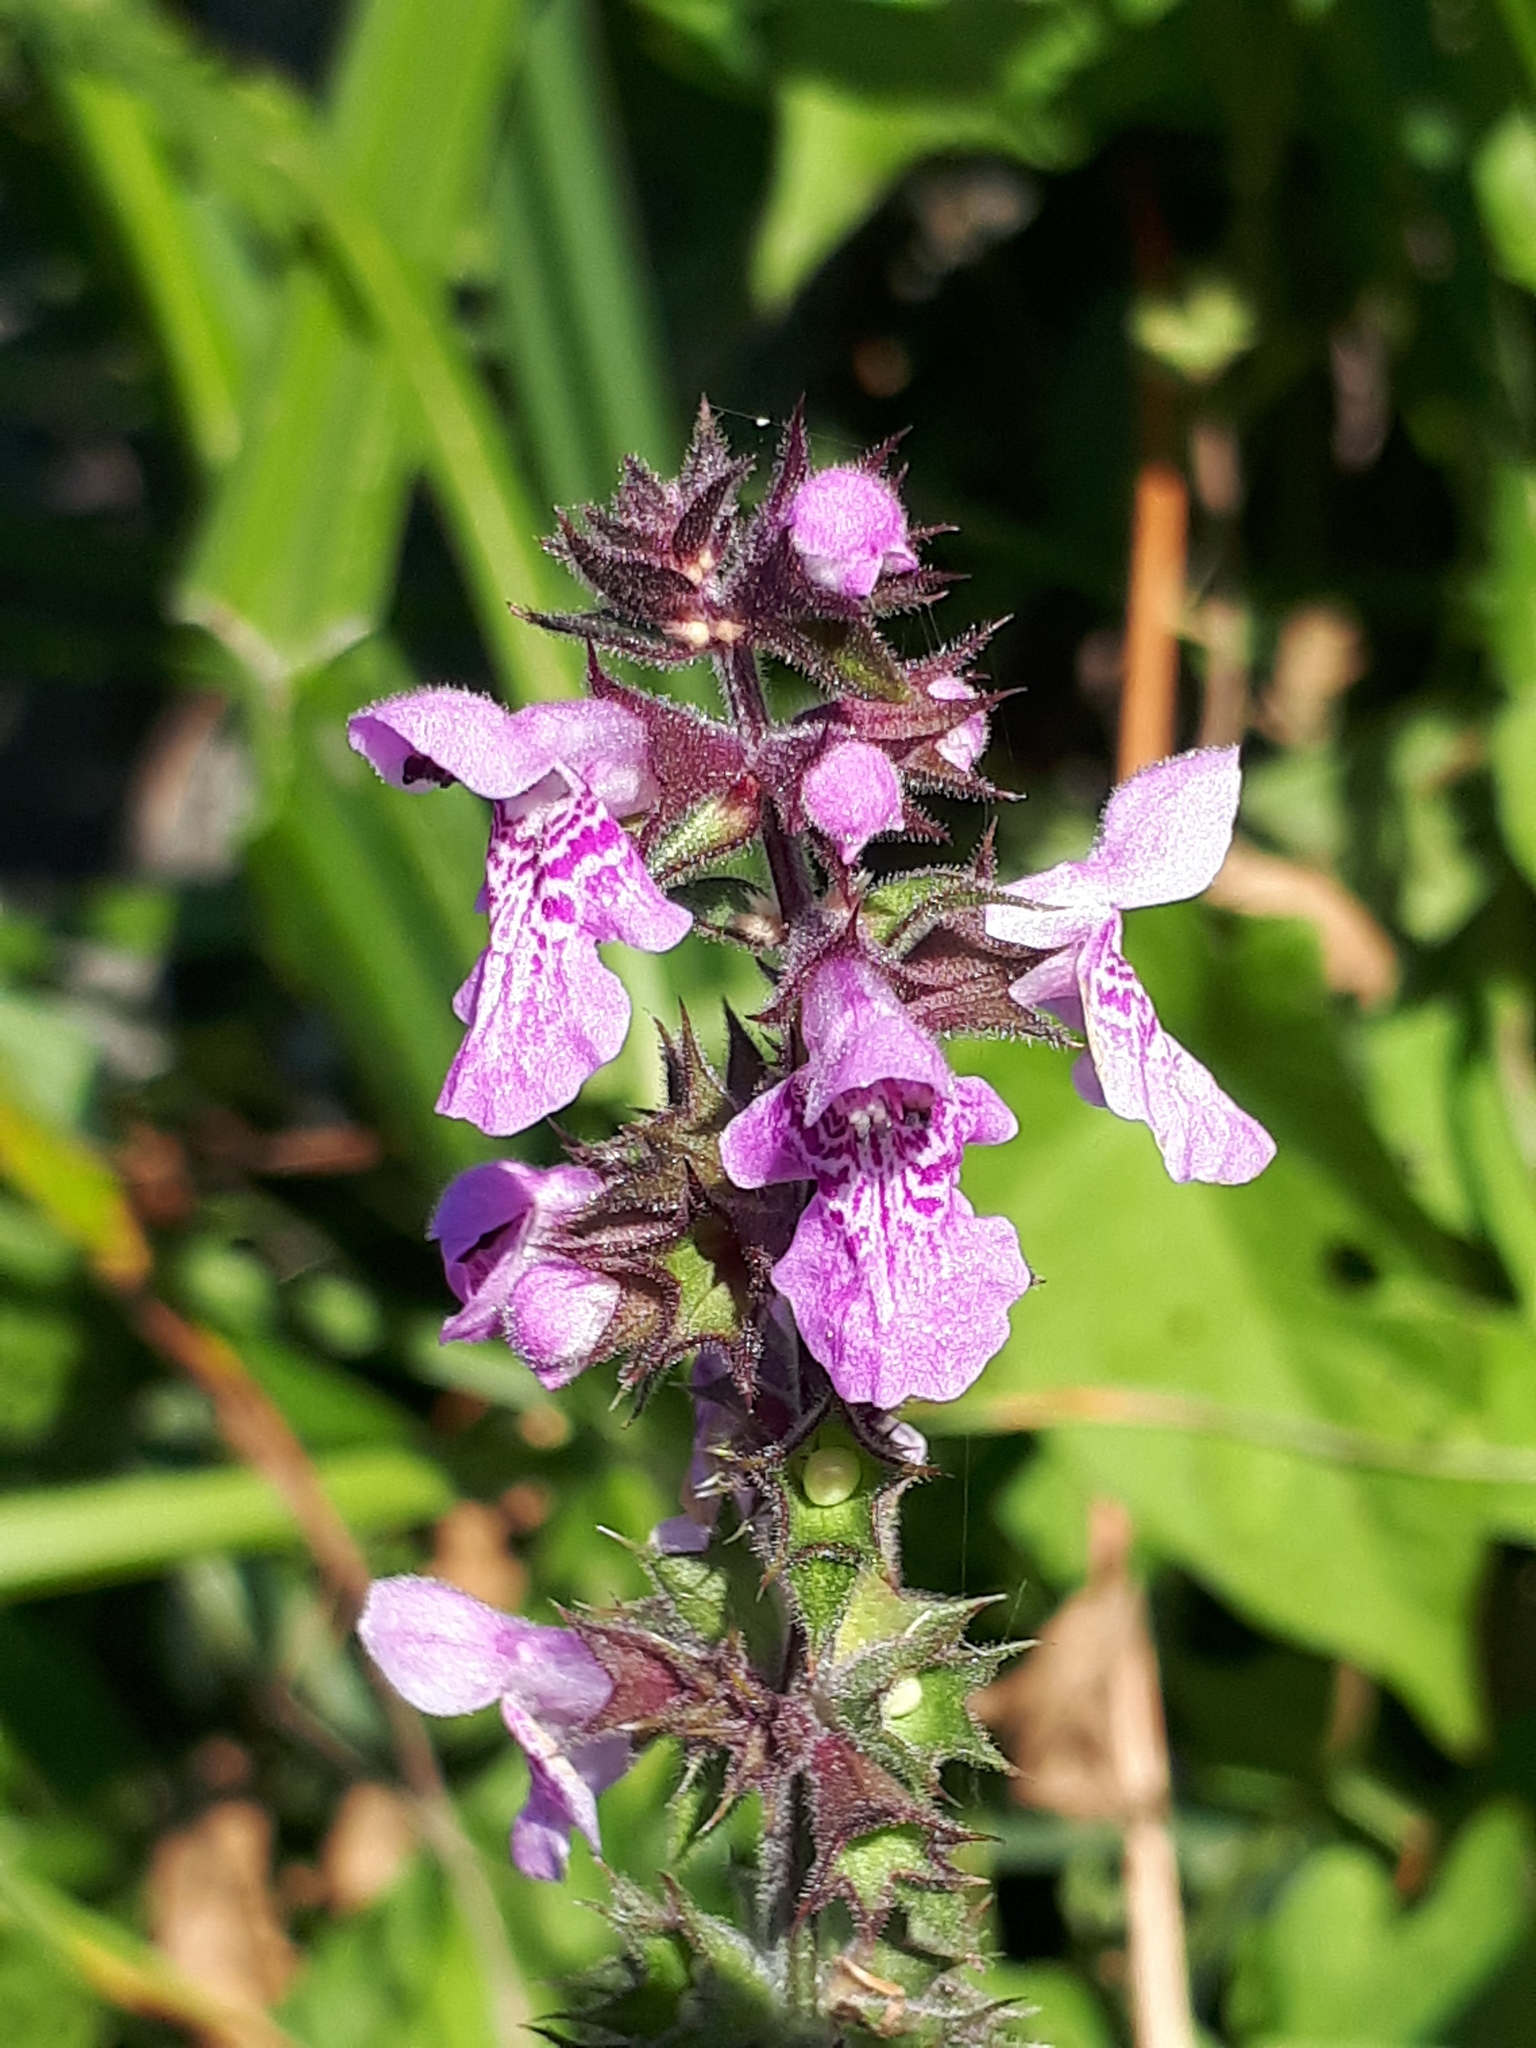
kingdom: Plantae
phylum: Tracheophyta
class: Magnoliopsida
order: Lamiales
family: Lamiaceae
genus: Stachys
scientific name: Stachys palustris
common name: Marsh woundwort
